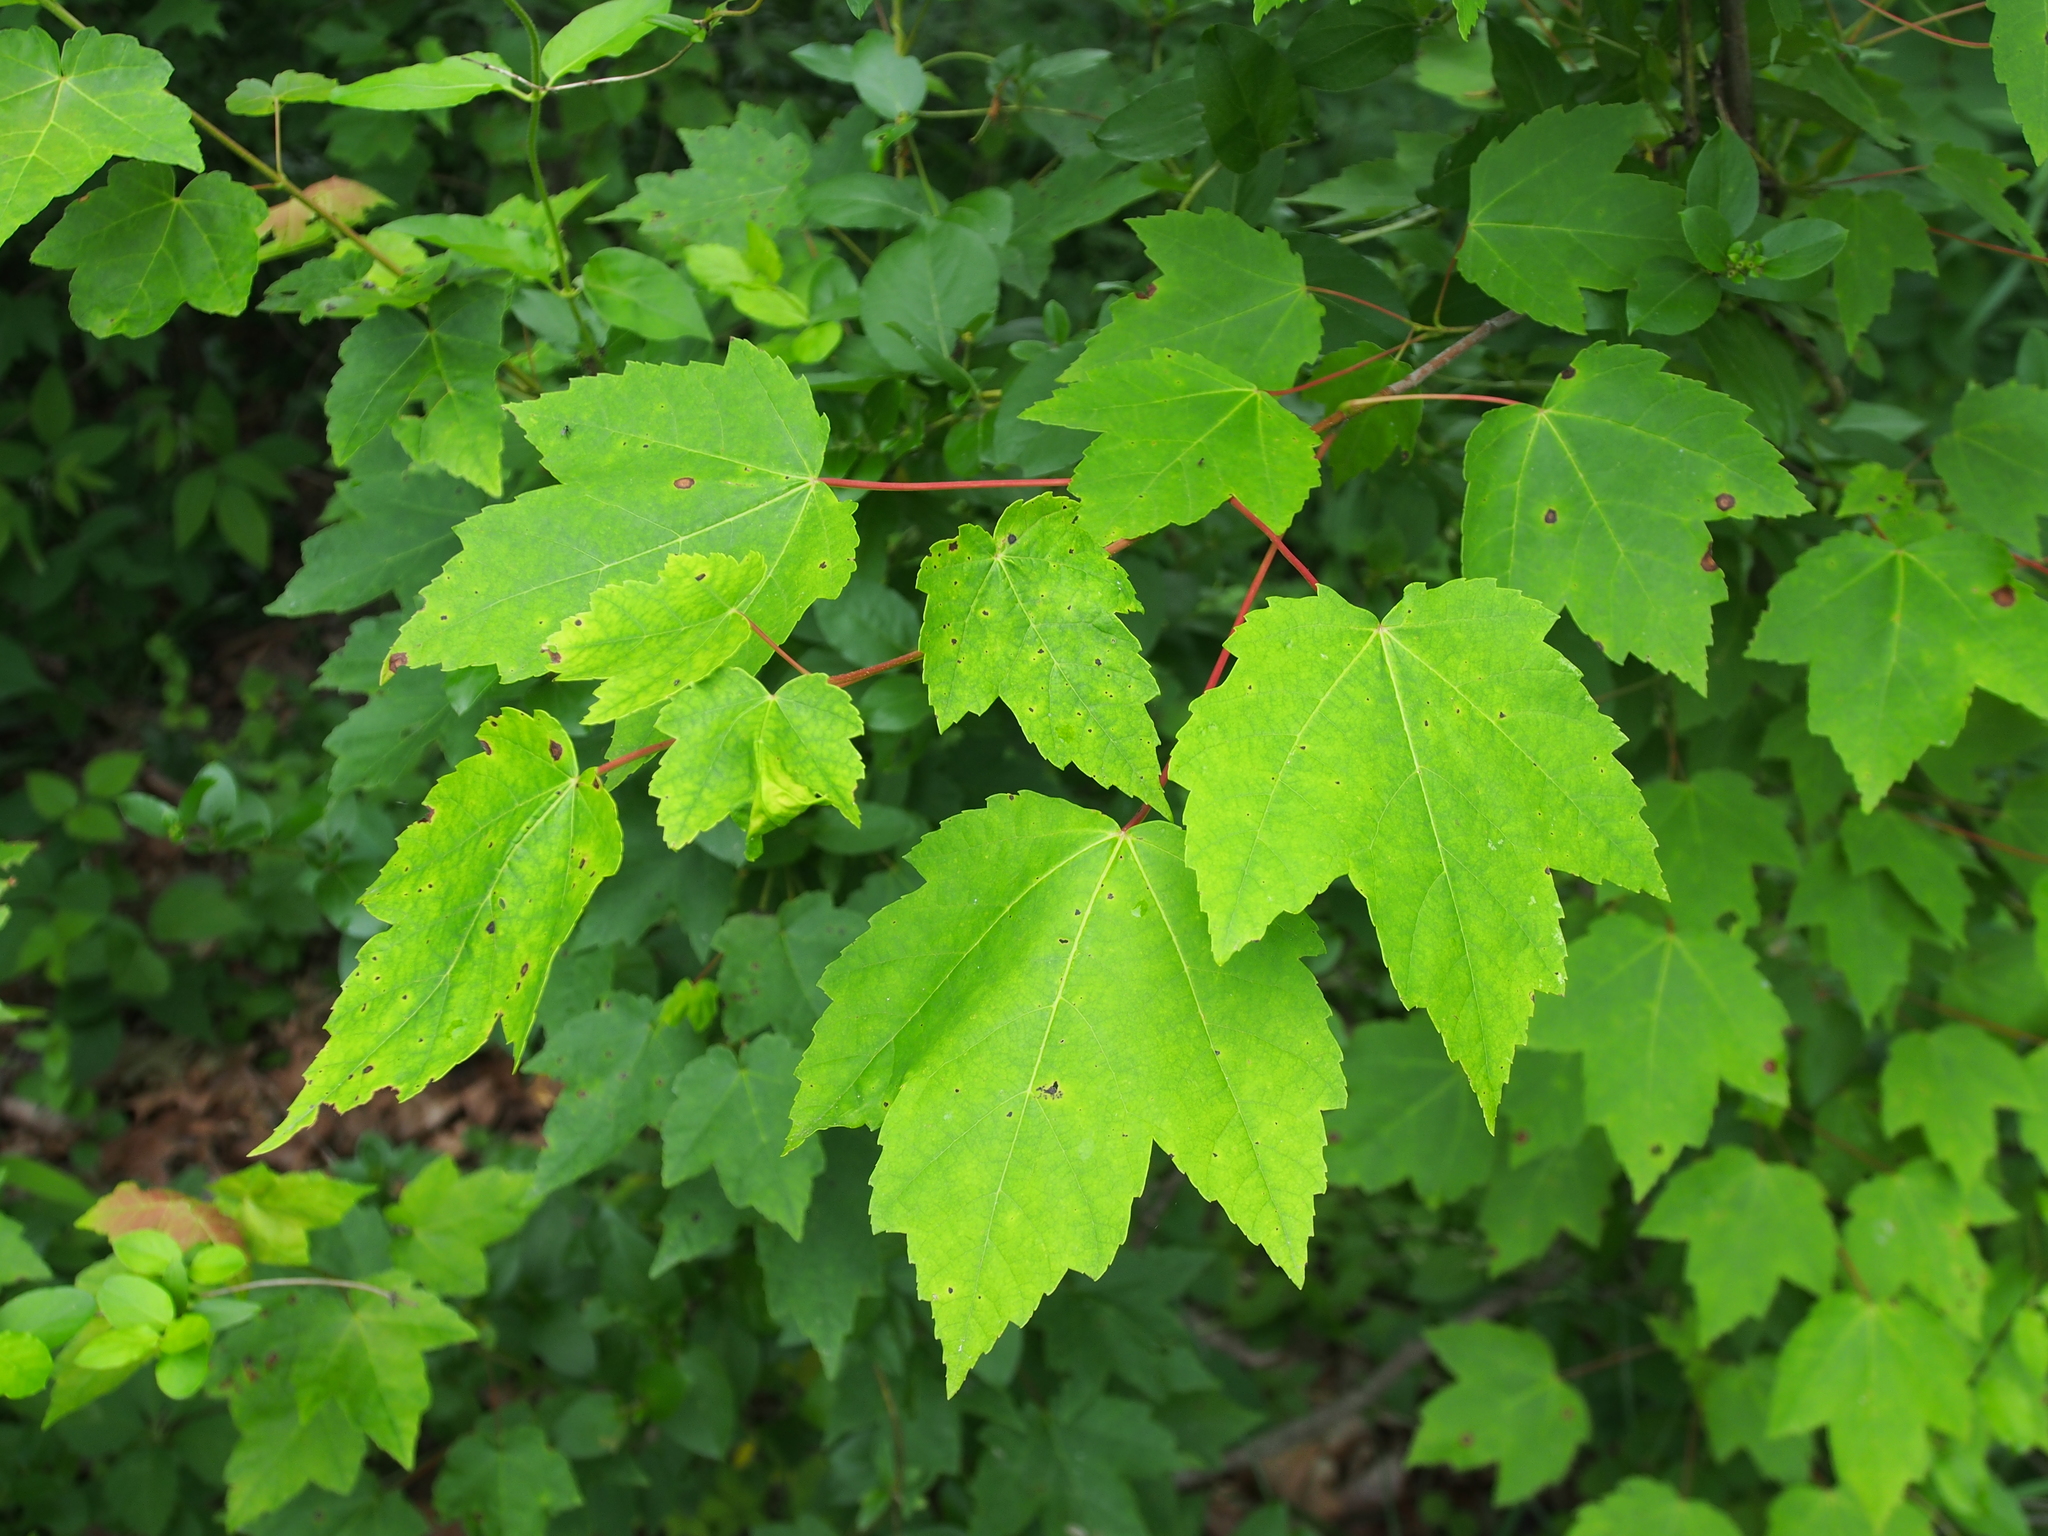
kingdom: Plantae
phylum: Tracheophyta
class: Magnoliopsida
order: Sapindales
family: Sapindaceae
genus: Acer
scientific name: Acer rubrum
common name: Red maple
